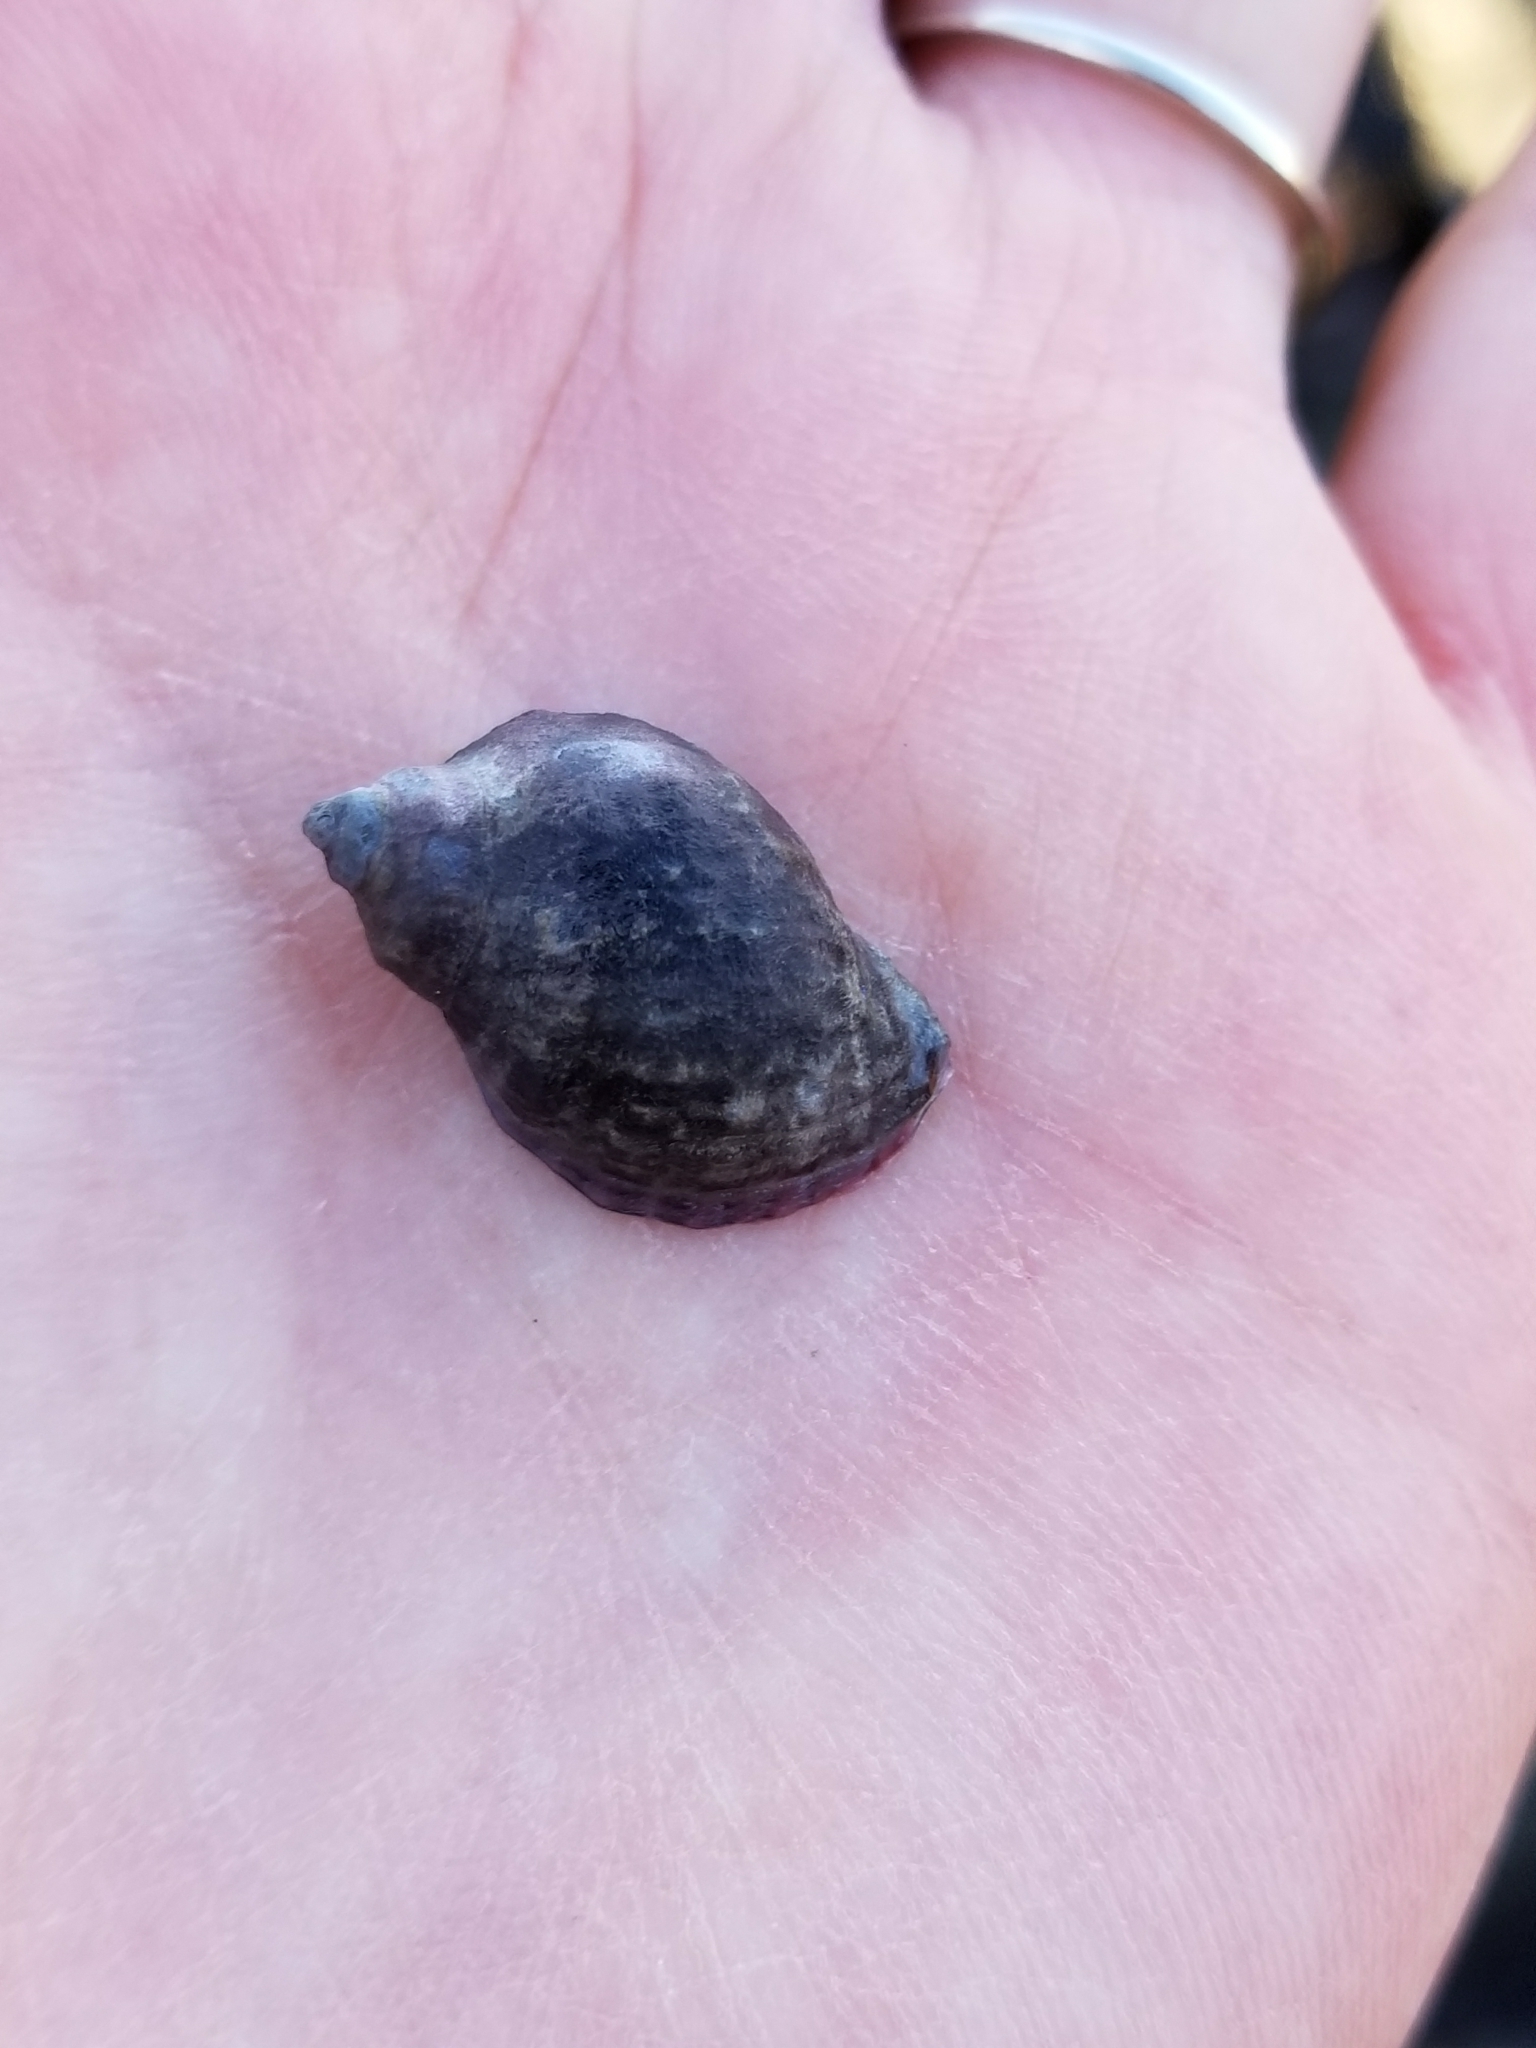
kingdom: Animalia
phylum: Mollusca
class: Gastropoda
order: Neogastropoda
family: Muricidae
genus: Nucella
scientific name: Nucella ostrina
